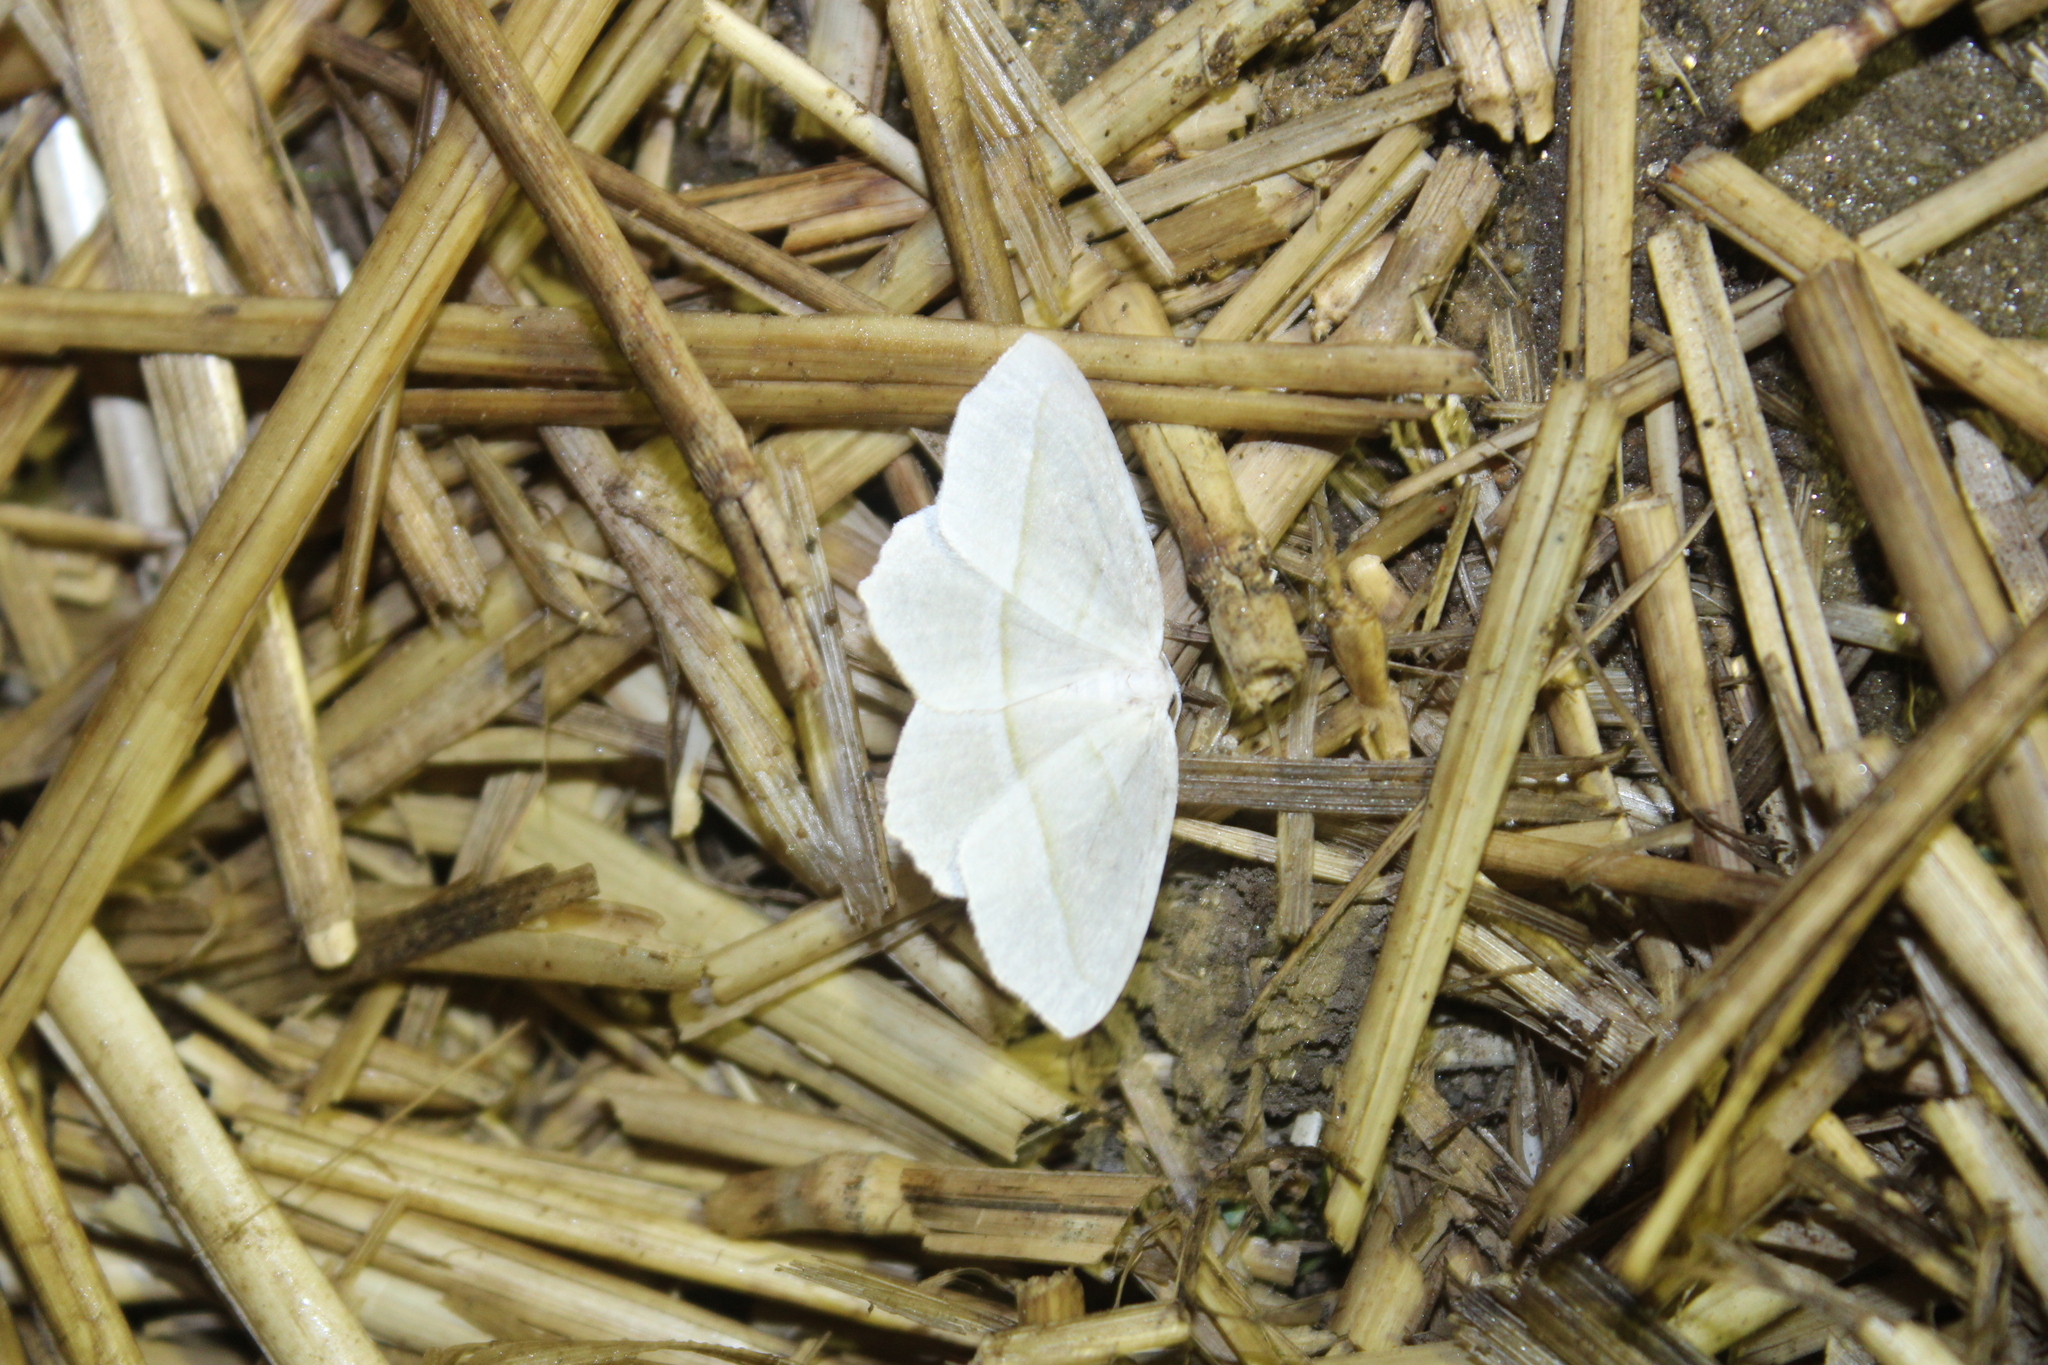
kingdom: Animalia
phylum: Arthropoda
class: Insecta
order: Lepidoptera
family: Geometridae
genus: Campaea
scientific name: Campaea perlata
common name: Fringed looper
